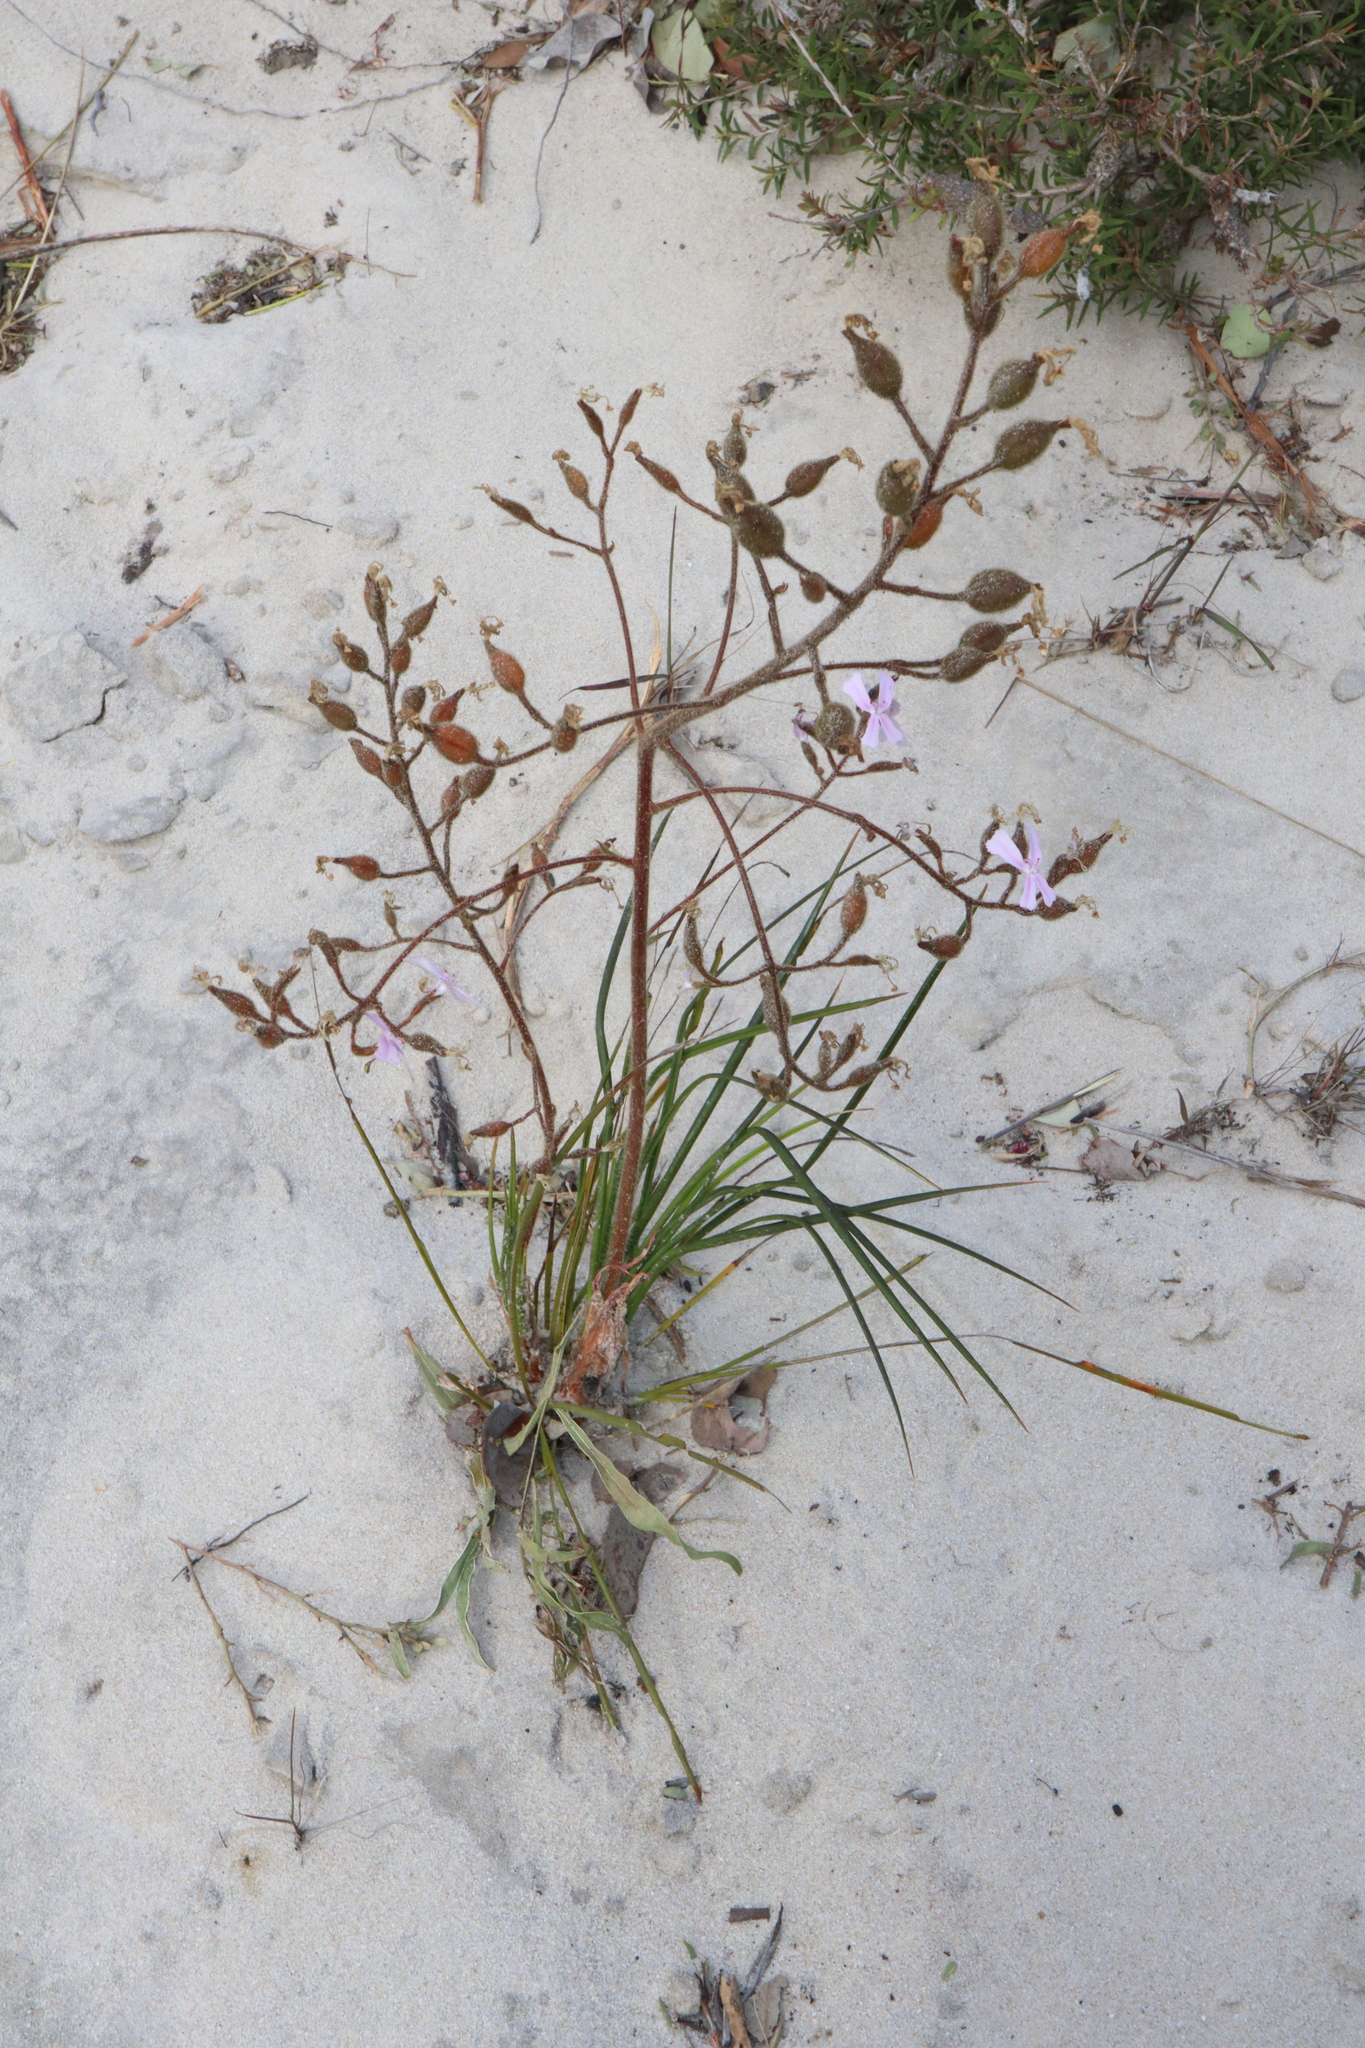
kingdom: Plantae
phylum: Tracheophyta
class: Magnoliopsida
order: Asterales
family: Stylidiaceae
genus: Stylidium
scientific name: Stylidium pilosum
